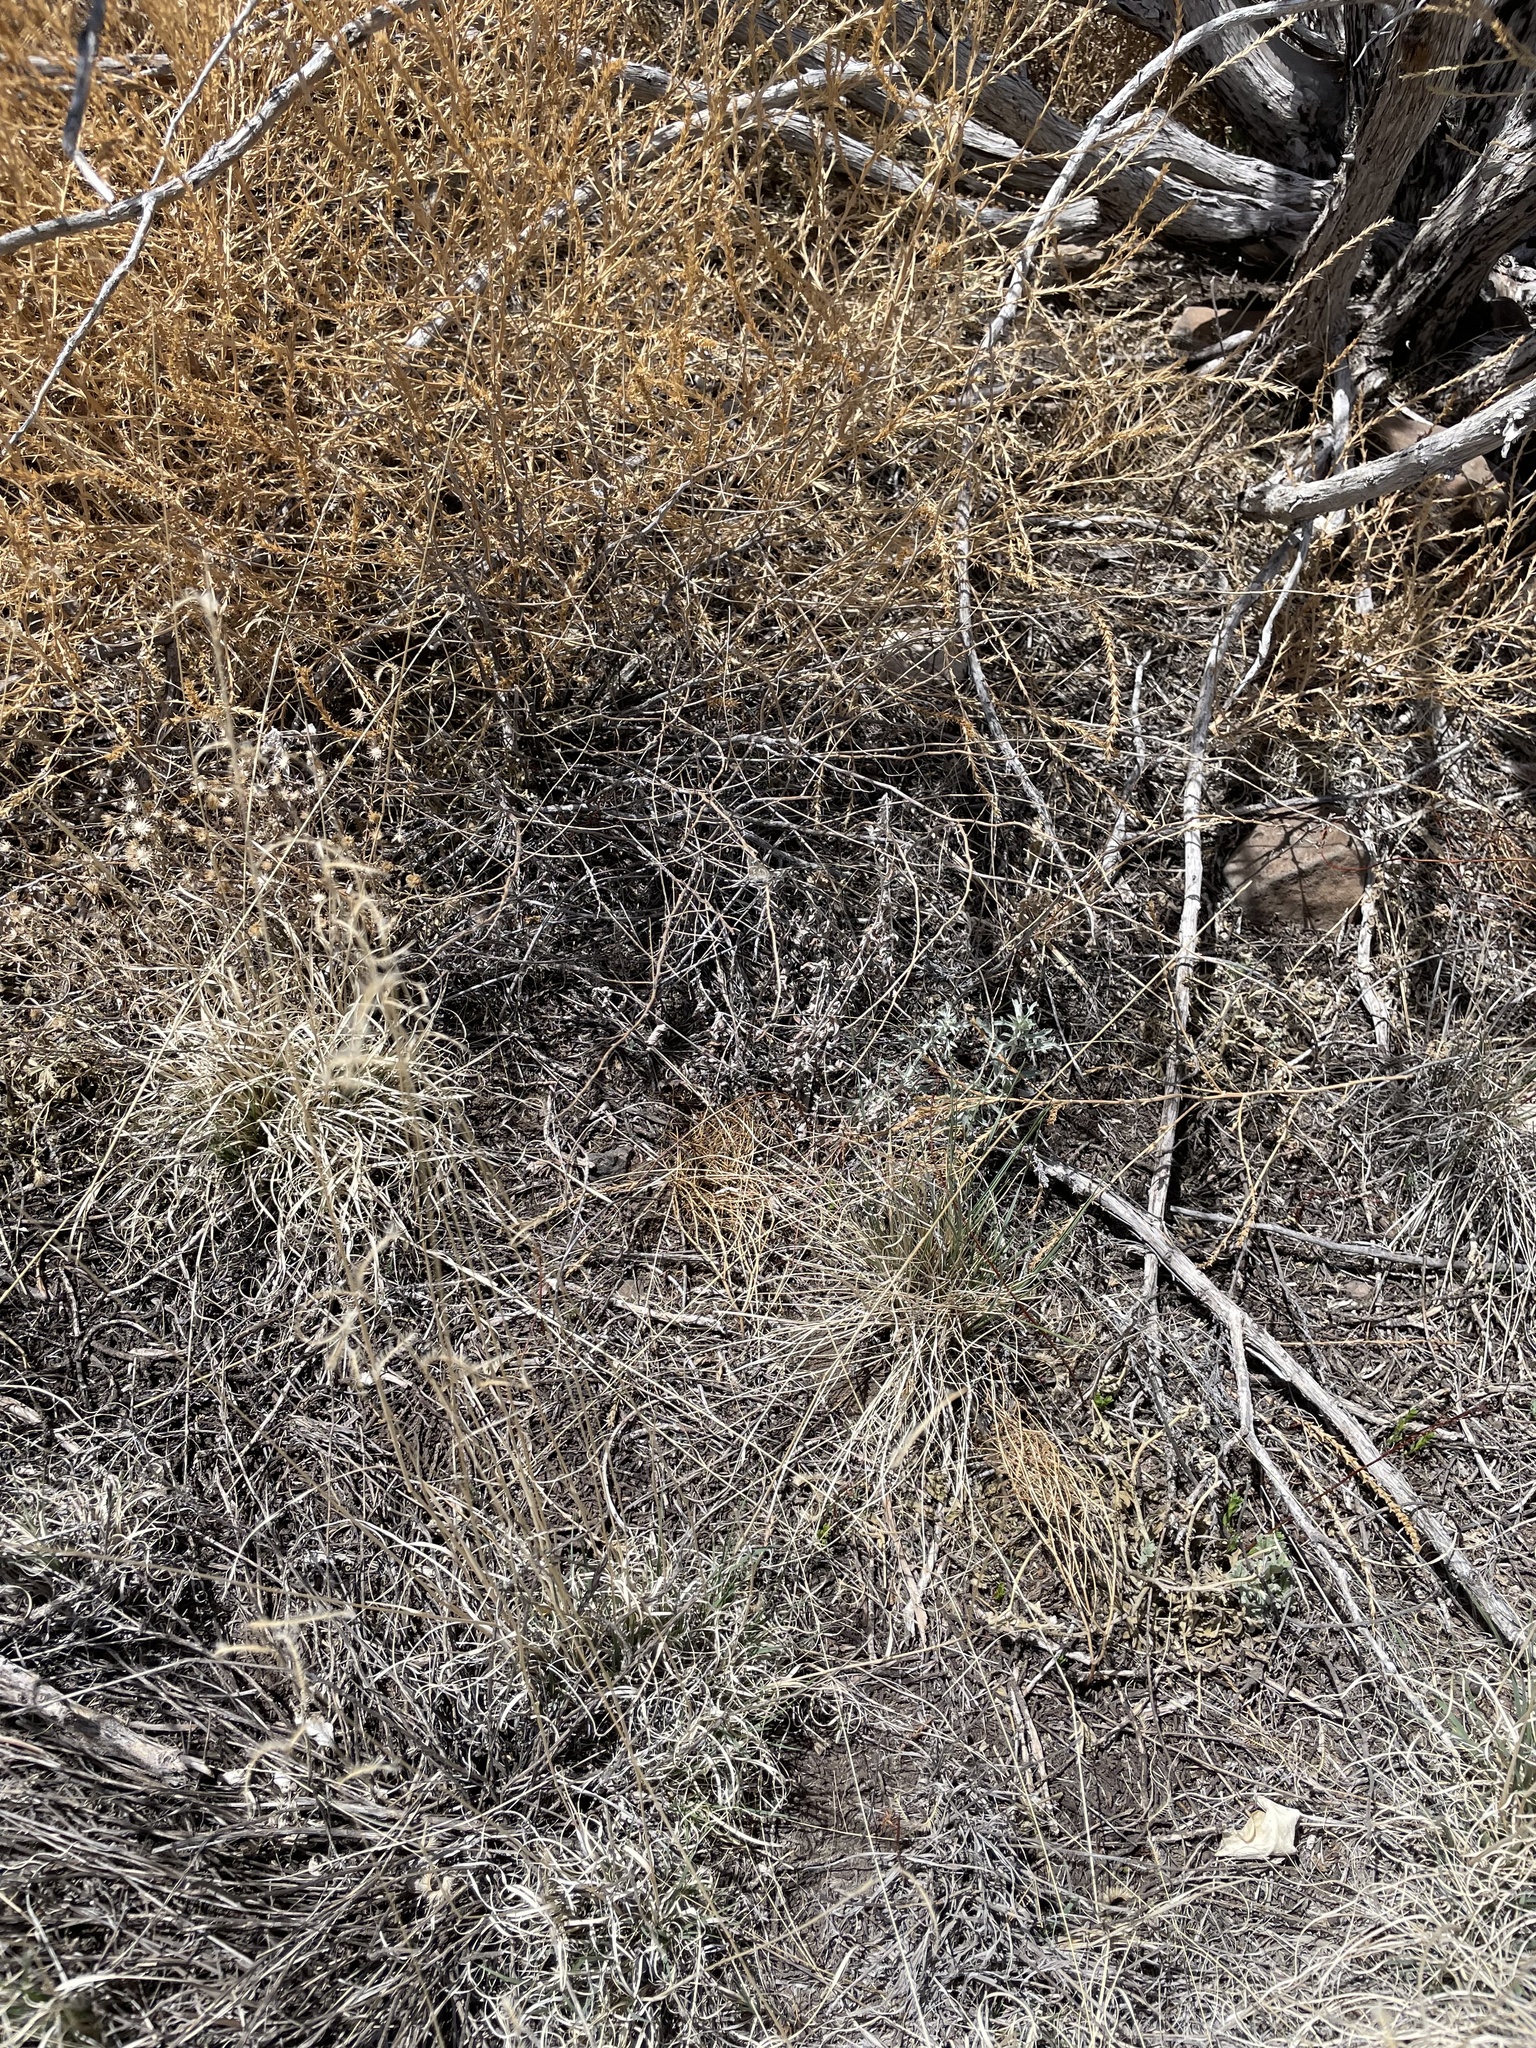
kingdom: Animalia
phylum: Arthropoda
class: Insecta
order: Lepidoptera
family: Hesperiidae
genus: Mastor
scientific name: Mastor eos
